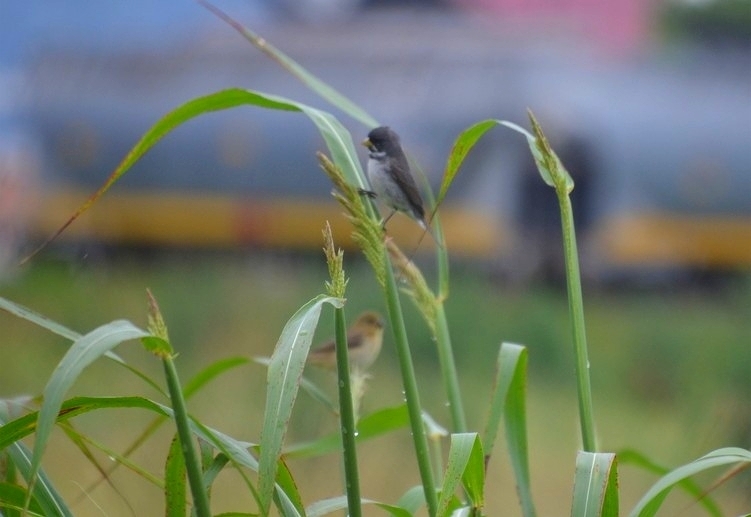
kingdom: Animalia
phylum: Chordata
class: Aves
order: Passeriformes
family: Thraupidae
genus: Sporophila
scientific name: Sporophila caerulescens
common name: Double-collared seedeater
